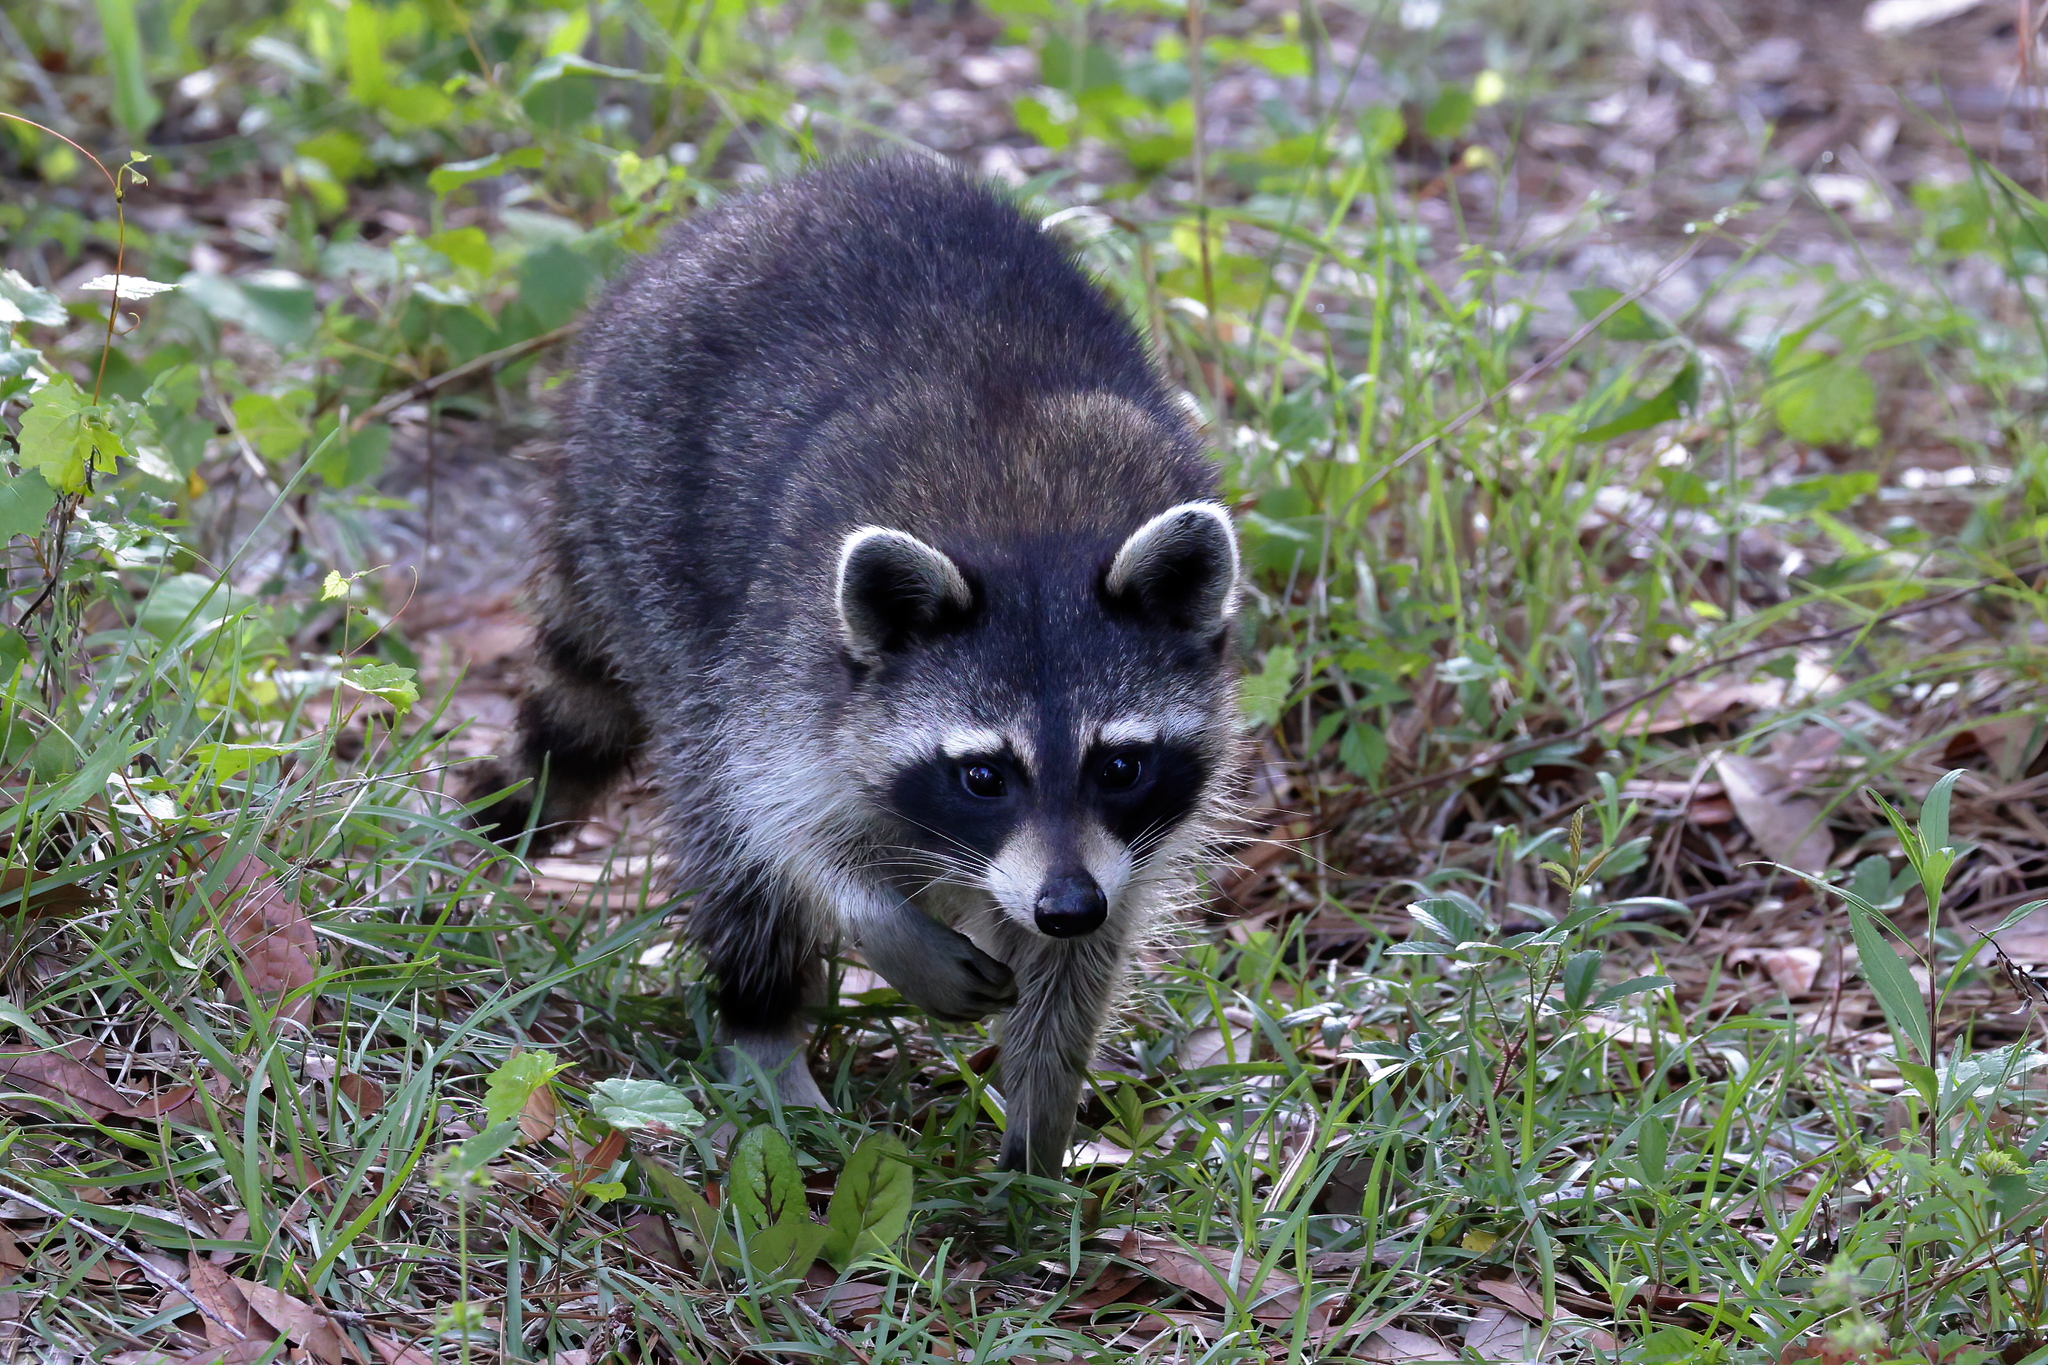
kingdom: Animalia
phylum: Chordata
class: Mammalia
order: Carnivora
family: Procyonidae
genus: Procyon
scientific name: Procyon lotor
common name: Raccoon
